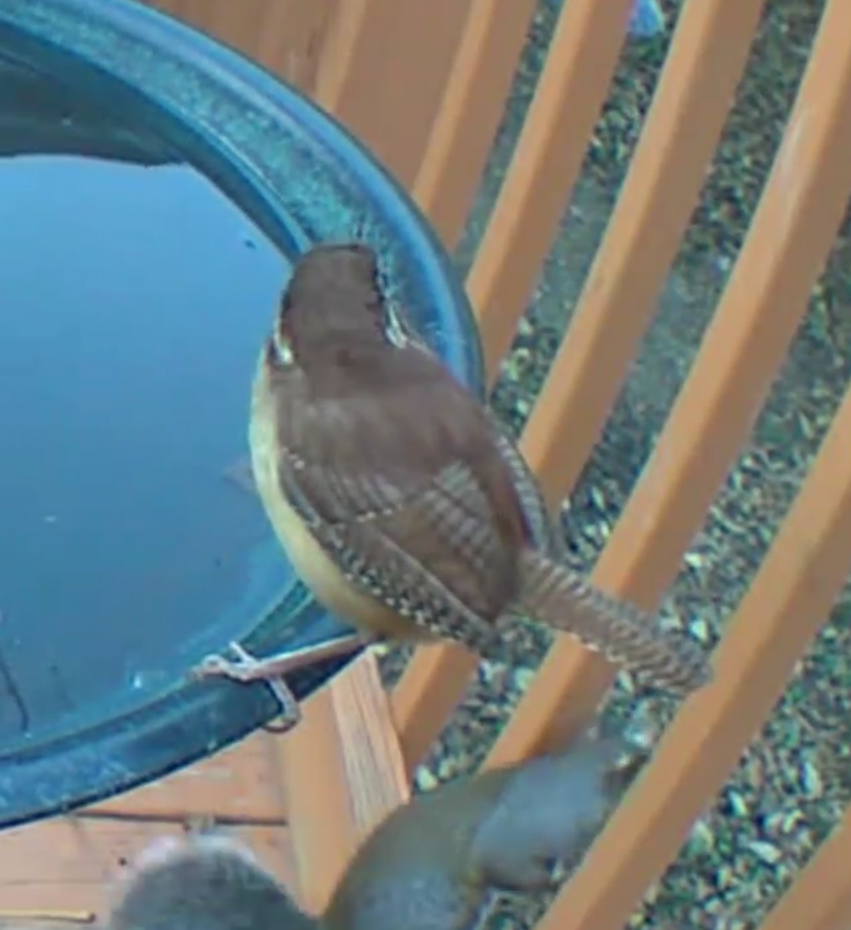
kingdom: Animalia
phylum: Chordata
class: Aves
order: Passeriformes
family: Troglodytidae
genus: Thryothorus
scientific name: Thryothorus ludovicianus
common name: Carolina wren
